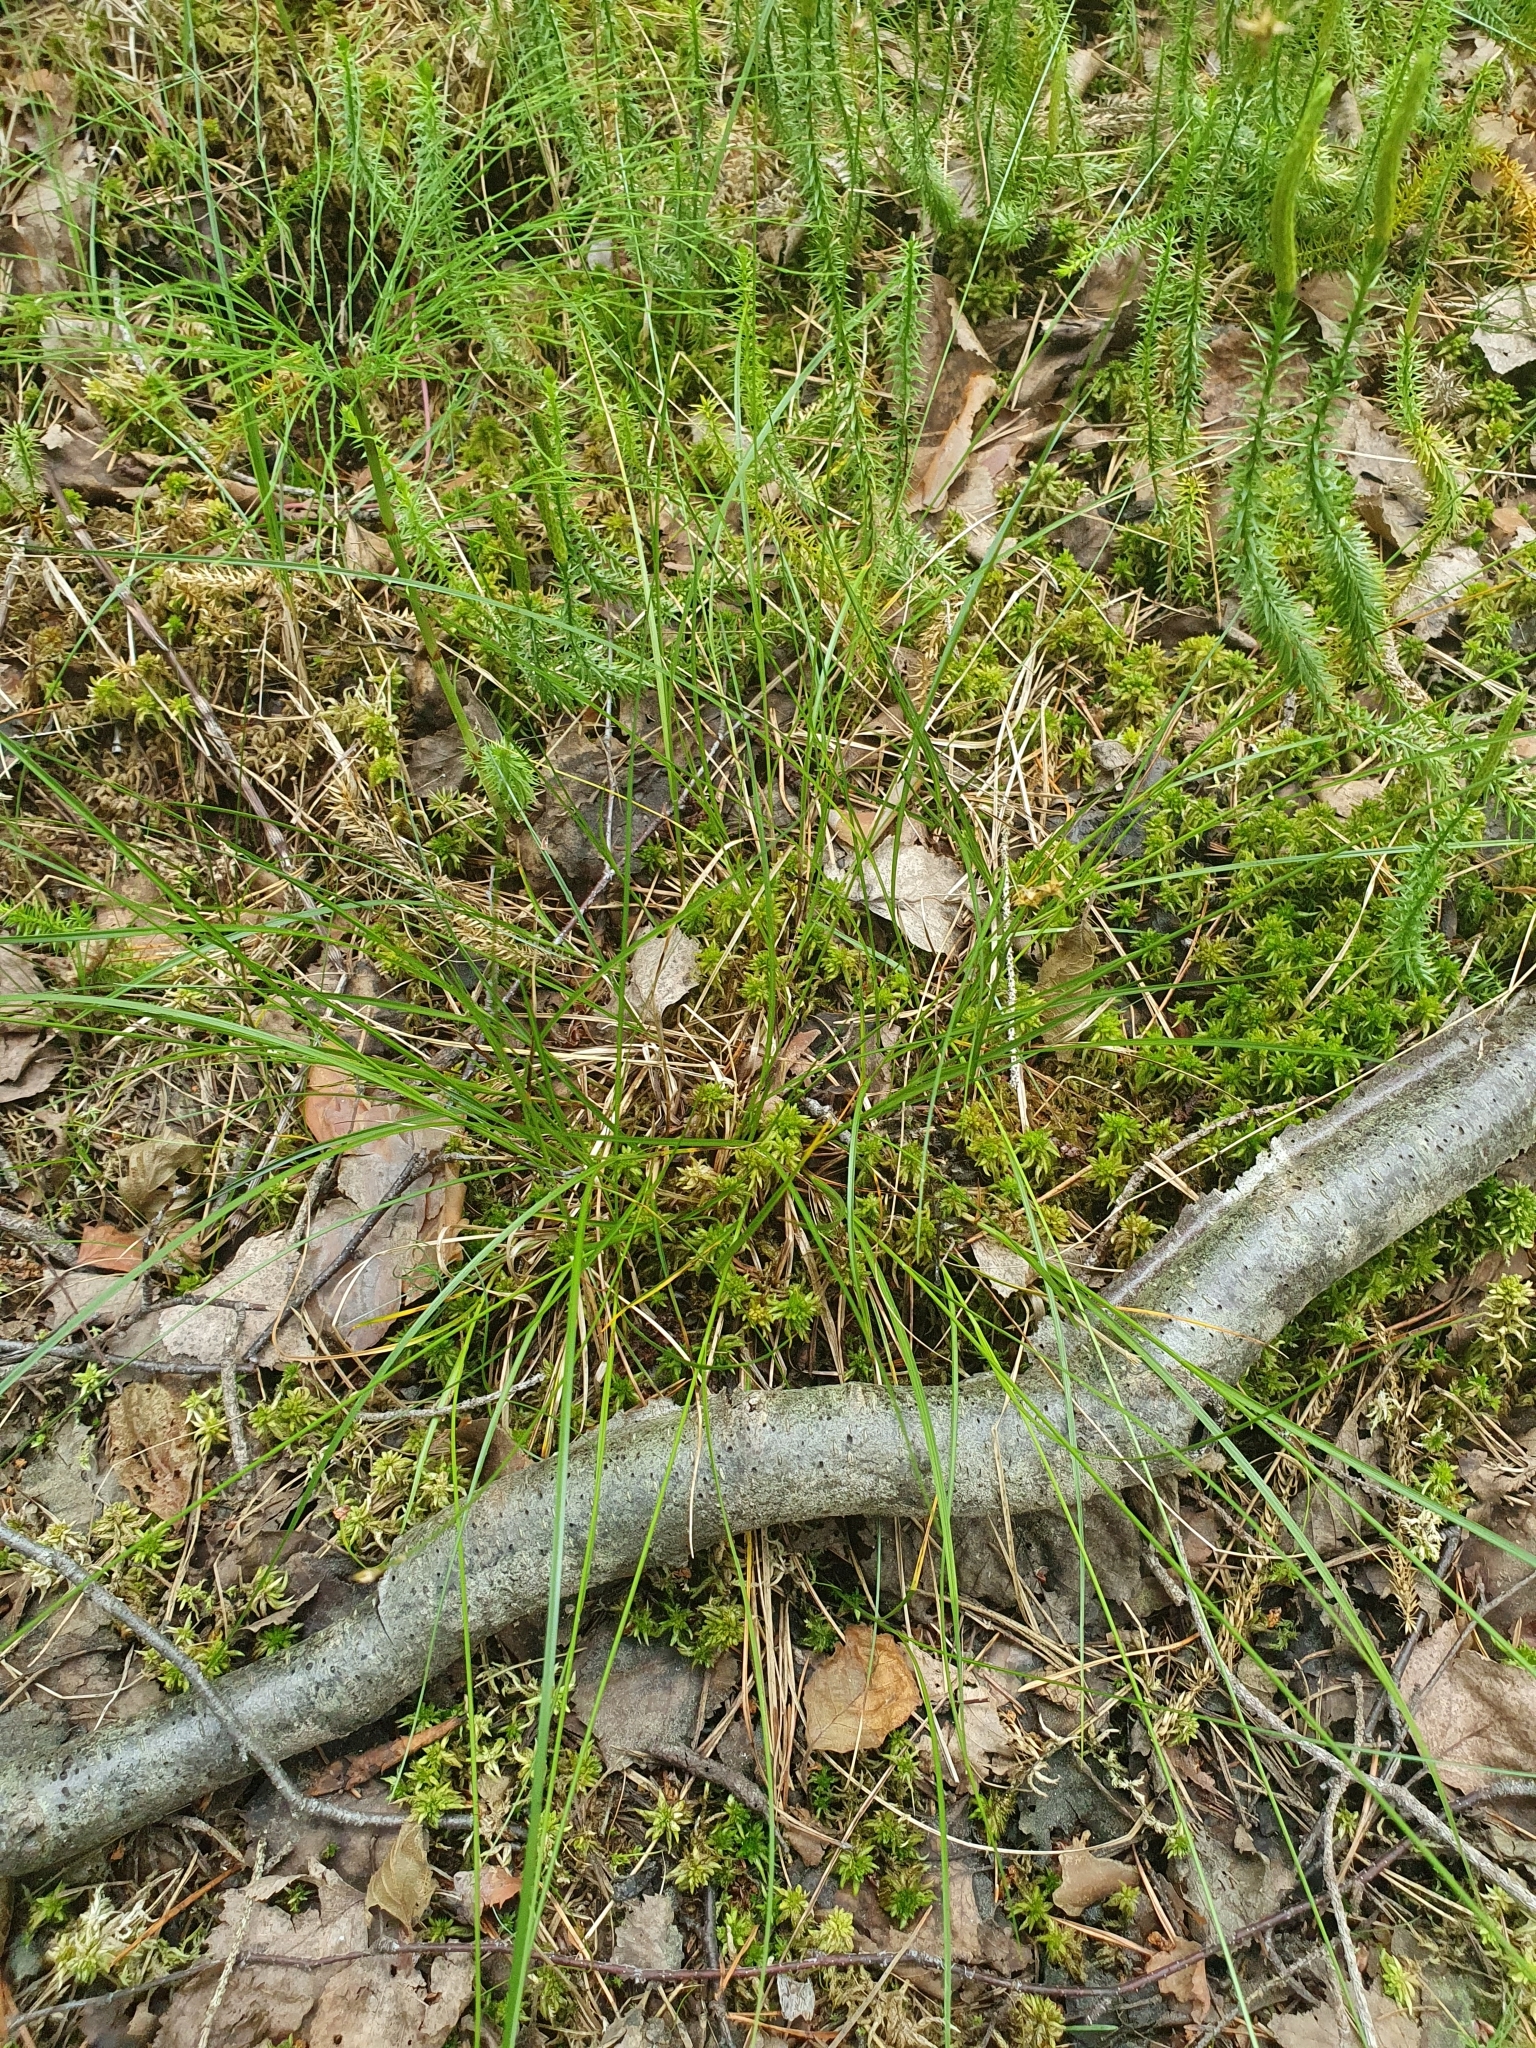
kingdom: Plantae
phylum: Tracheophyta
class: Liliopsida
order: Poales
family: Cyperaceae
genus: Carex
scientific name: Carex echinata
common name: Star sedge
